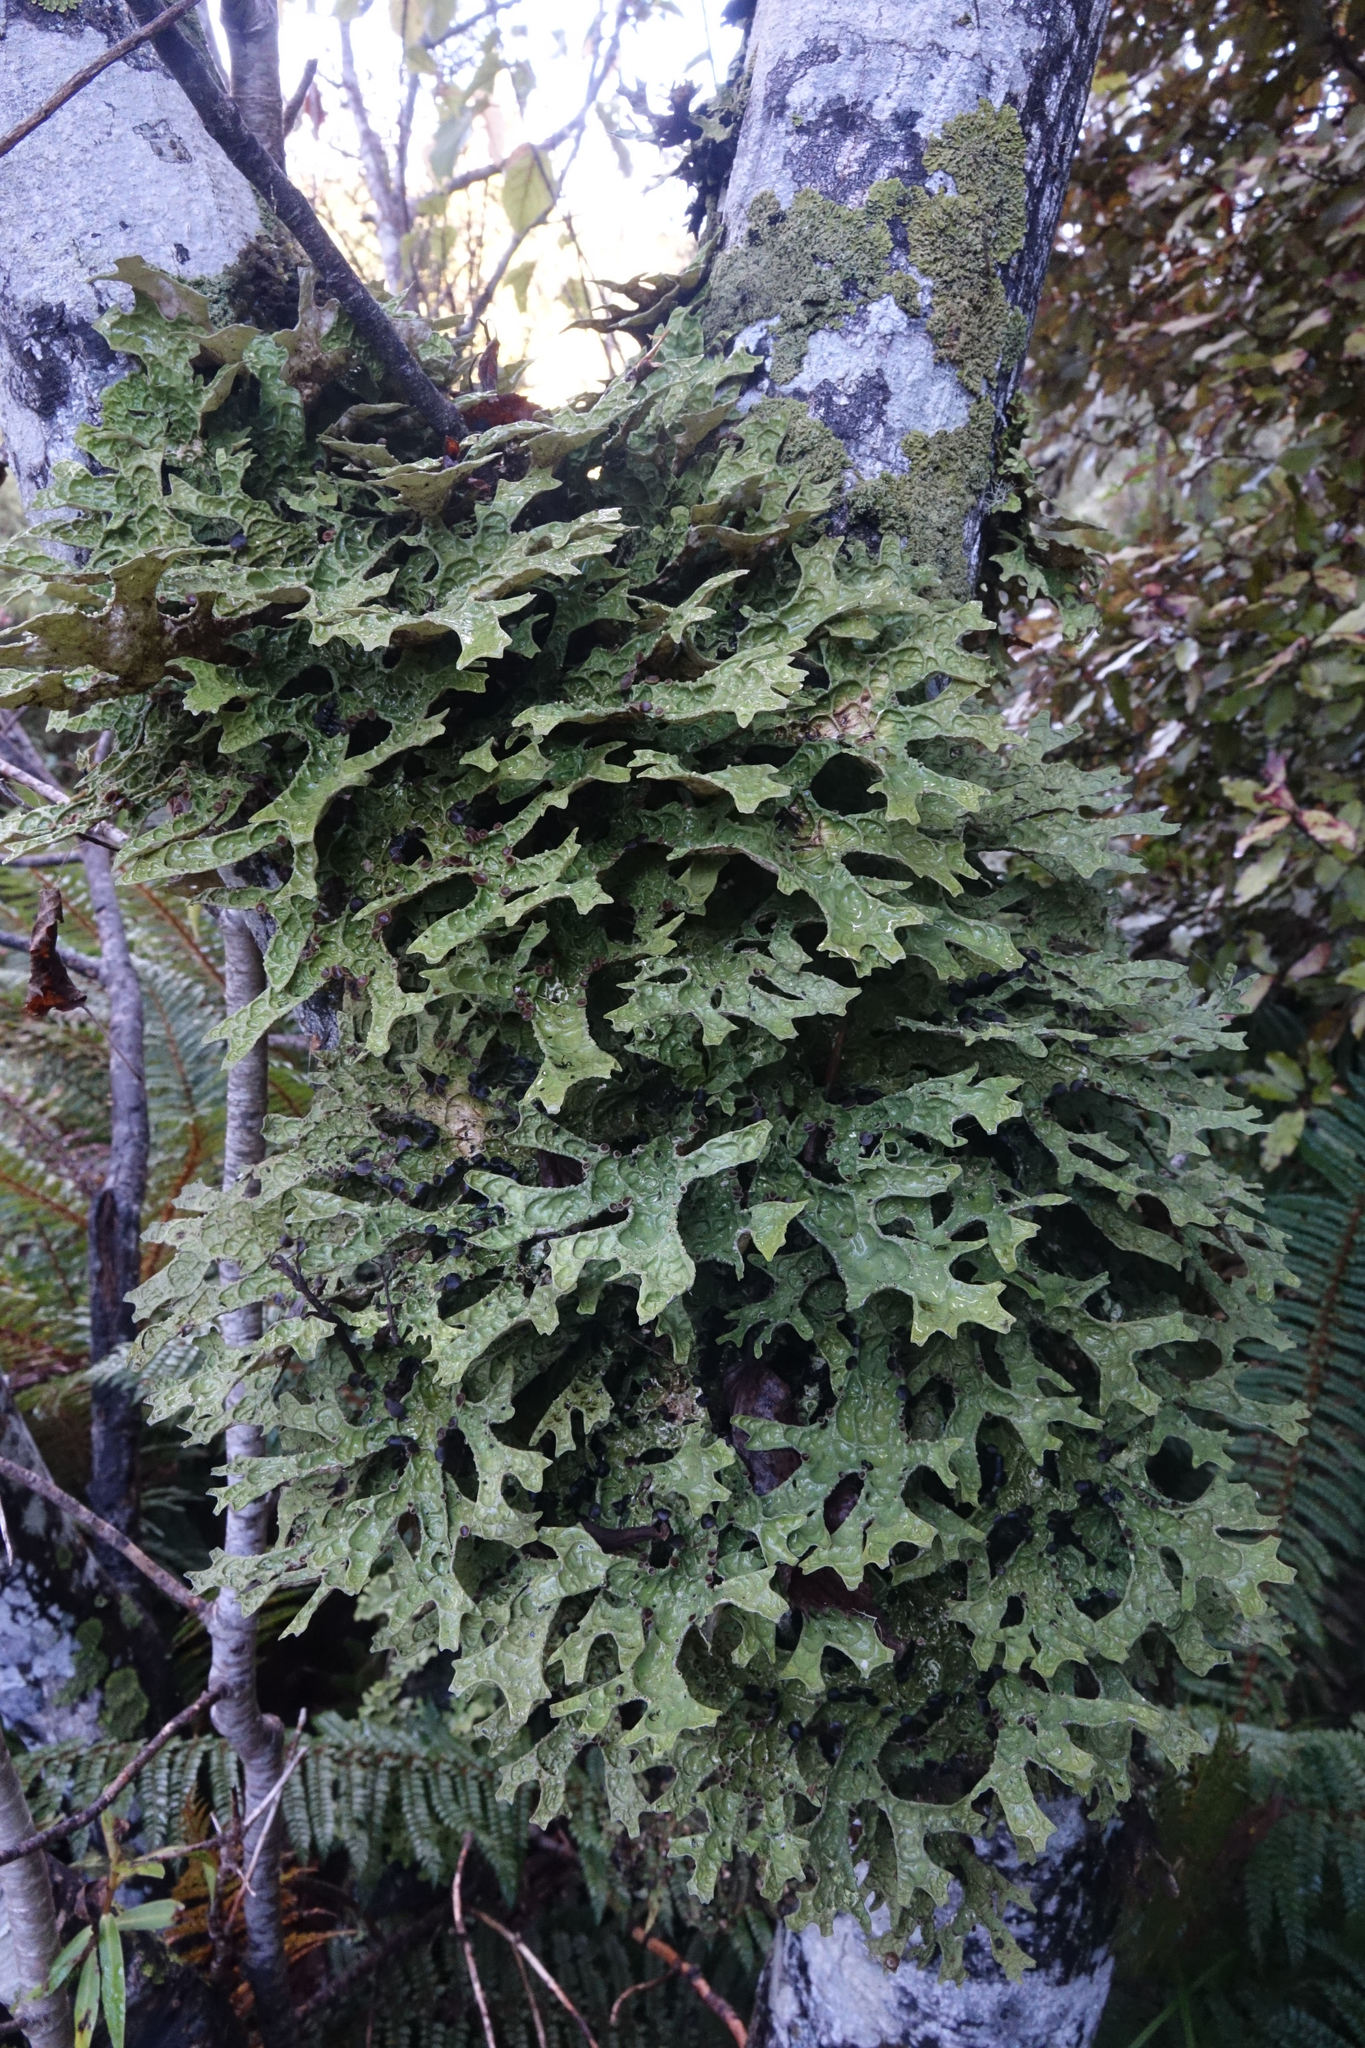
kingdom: Fungi
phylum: Ascomycota
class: Lecanoromycetes
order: Peltigerales
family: Lobariaceae
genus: Pseudocyphellaria
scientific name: Pseudocyphellaria faveolata
